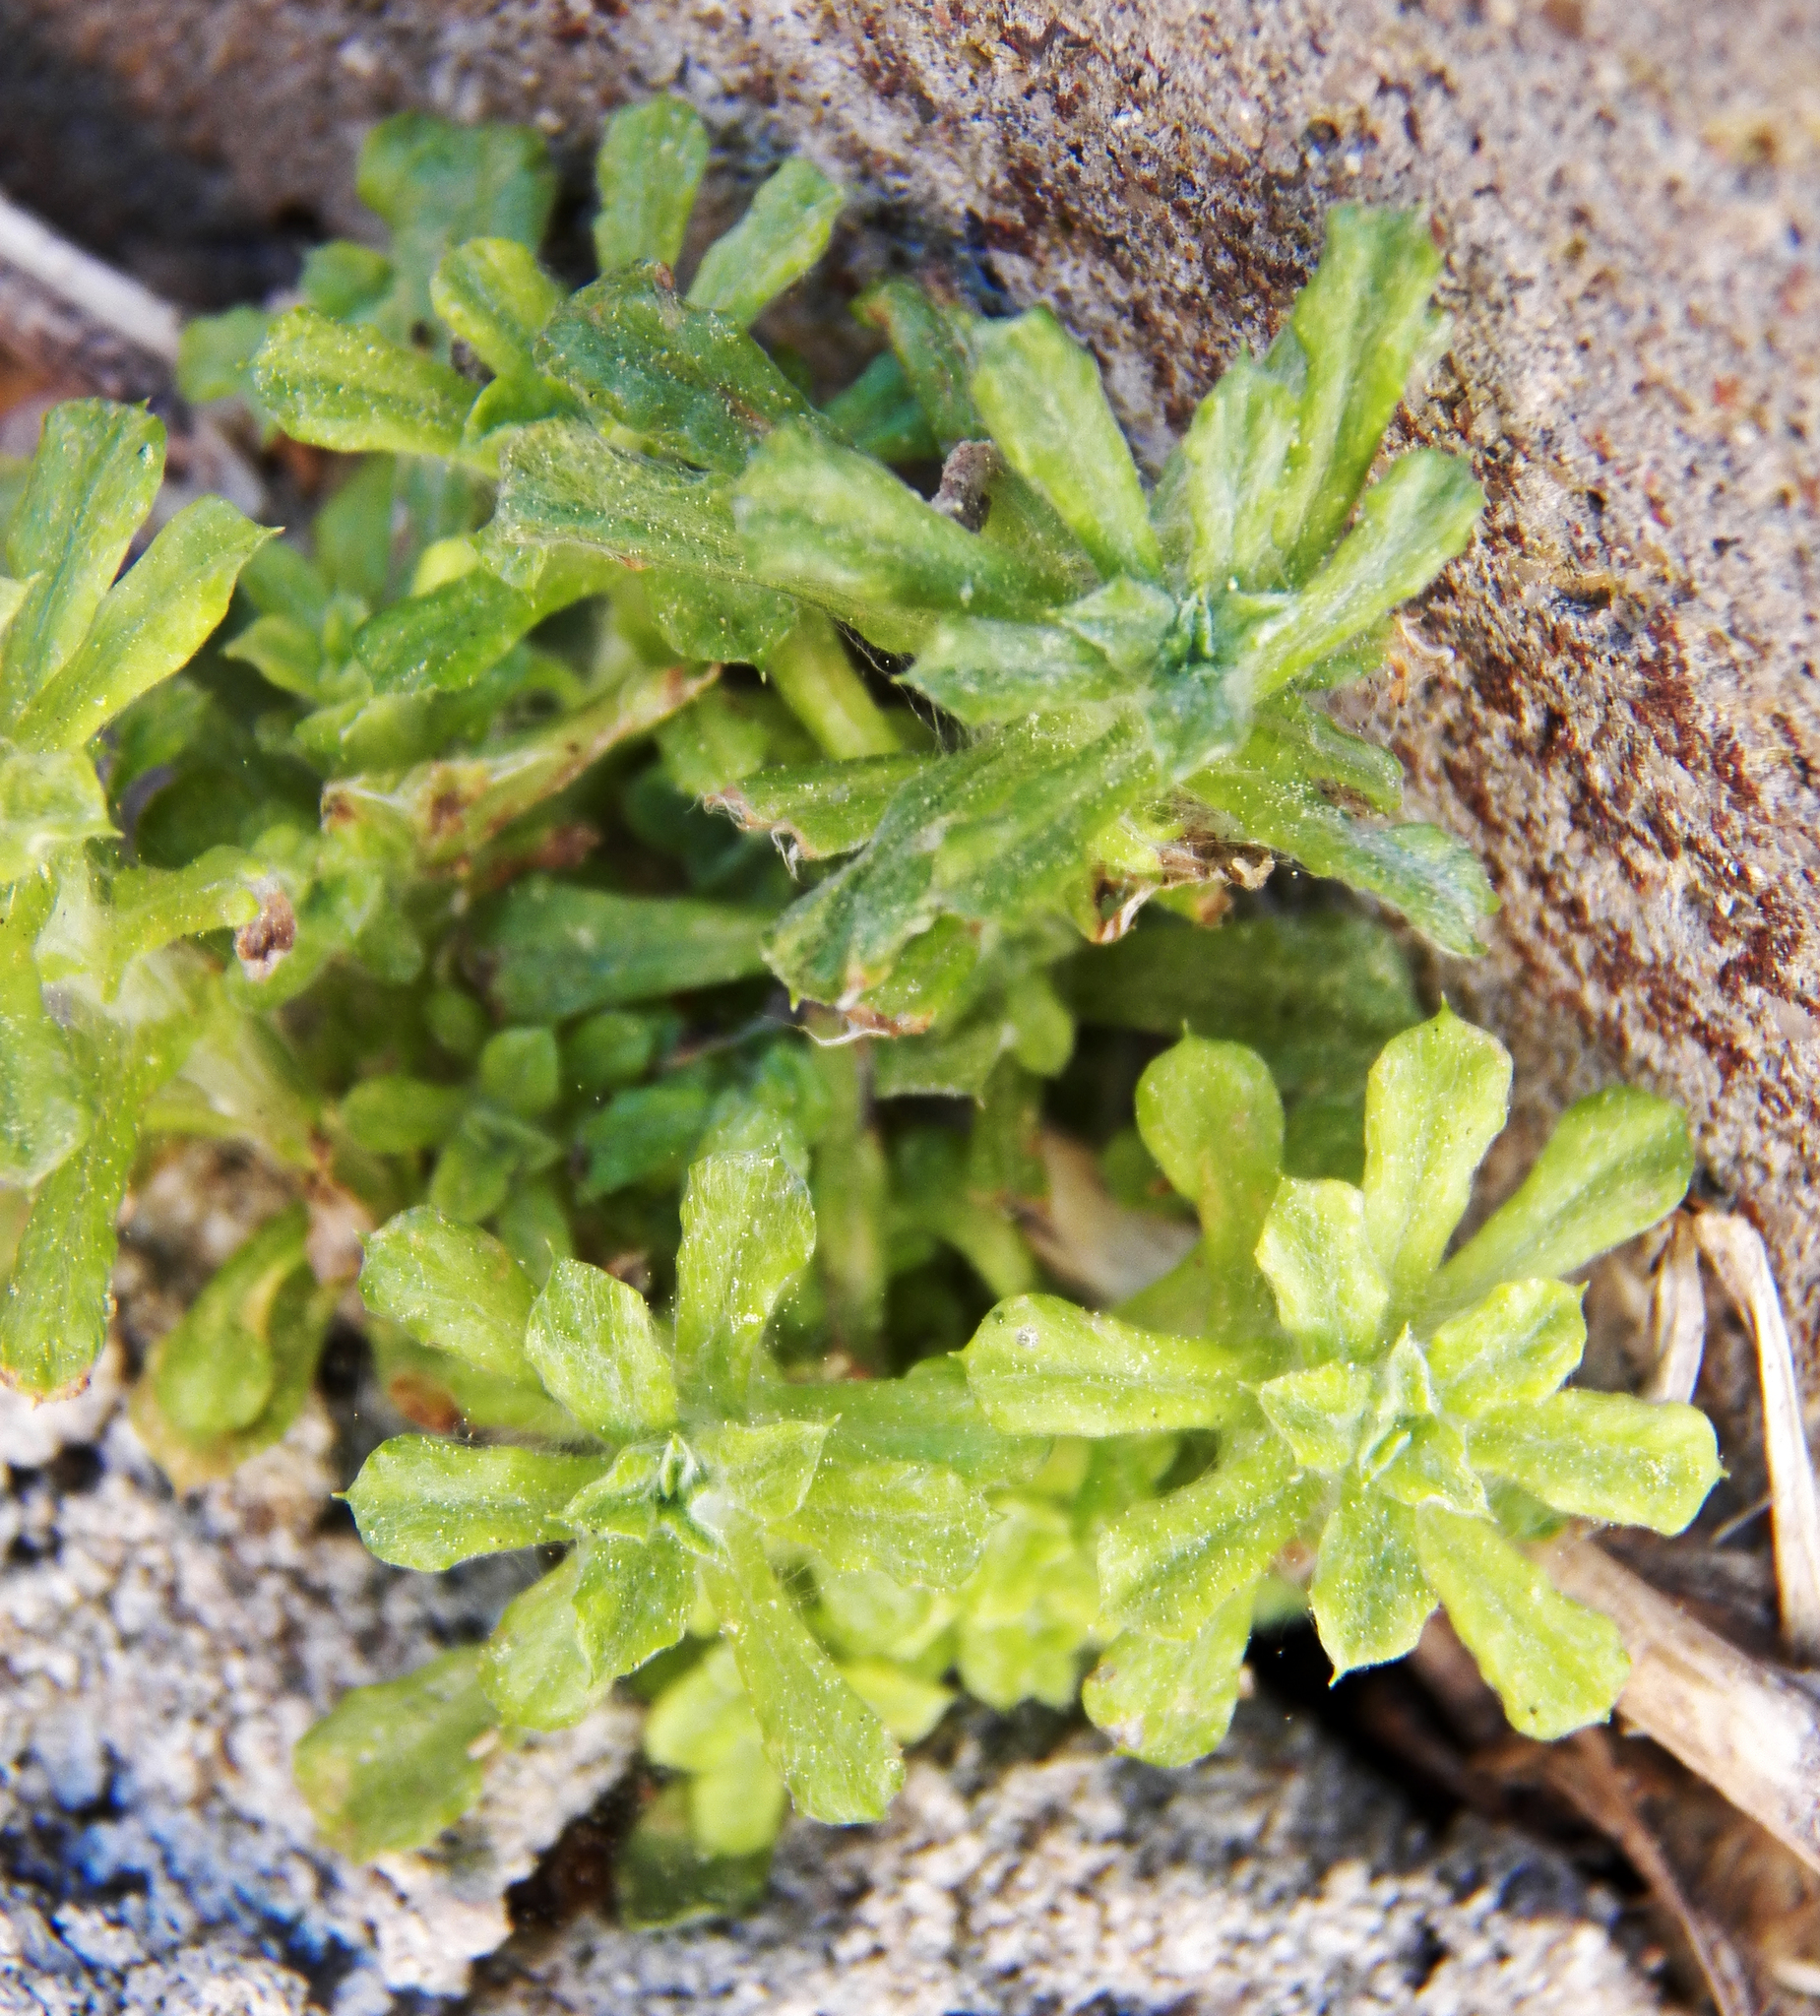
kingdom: Plantae
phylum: Tracheophyta
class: Magnoliopsida
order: Asterales
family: Asteraceae
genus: Facelis
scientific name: Facelis retusa
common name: Annual trampweed
